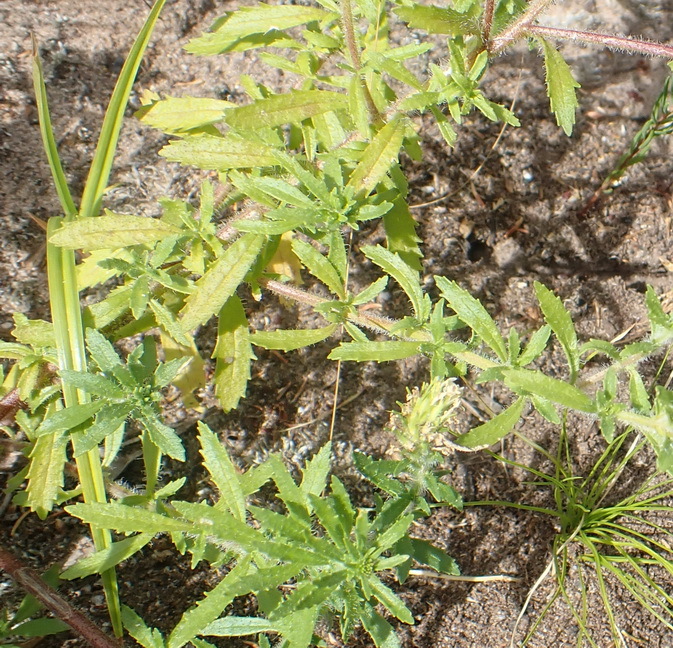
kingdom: Plantae
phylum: Tracheophyta
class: Magnoliopsida
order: Lamiales
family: Scrophulariaceae
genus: Dischisma
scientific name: Dischisma ciliatum
